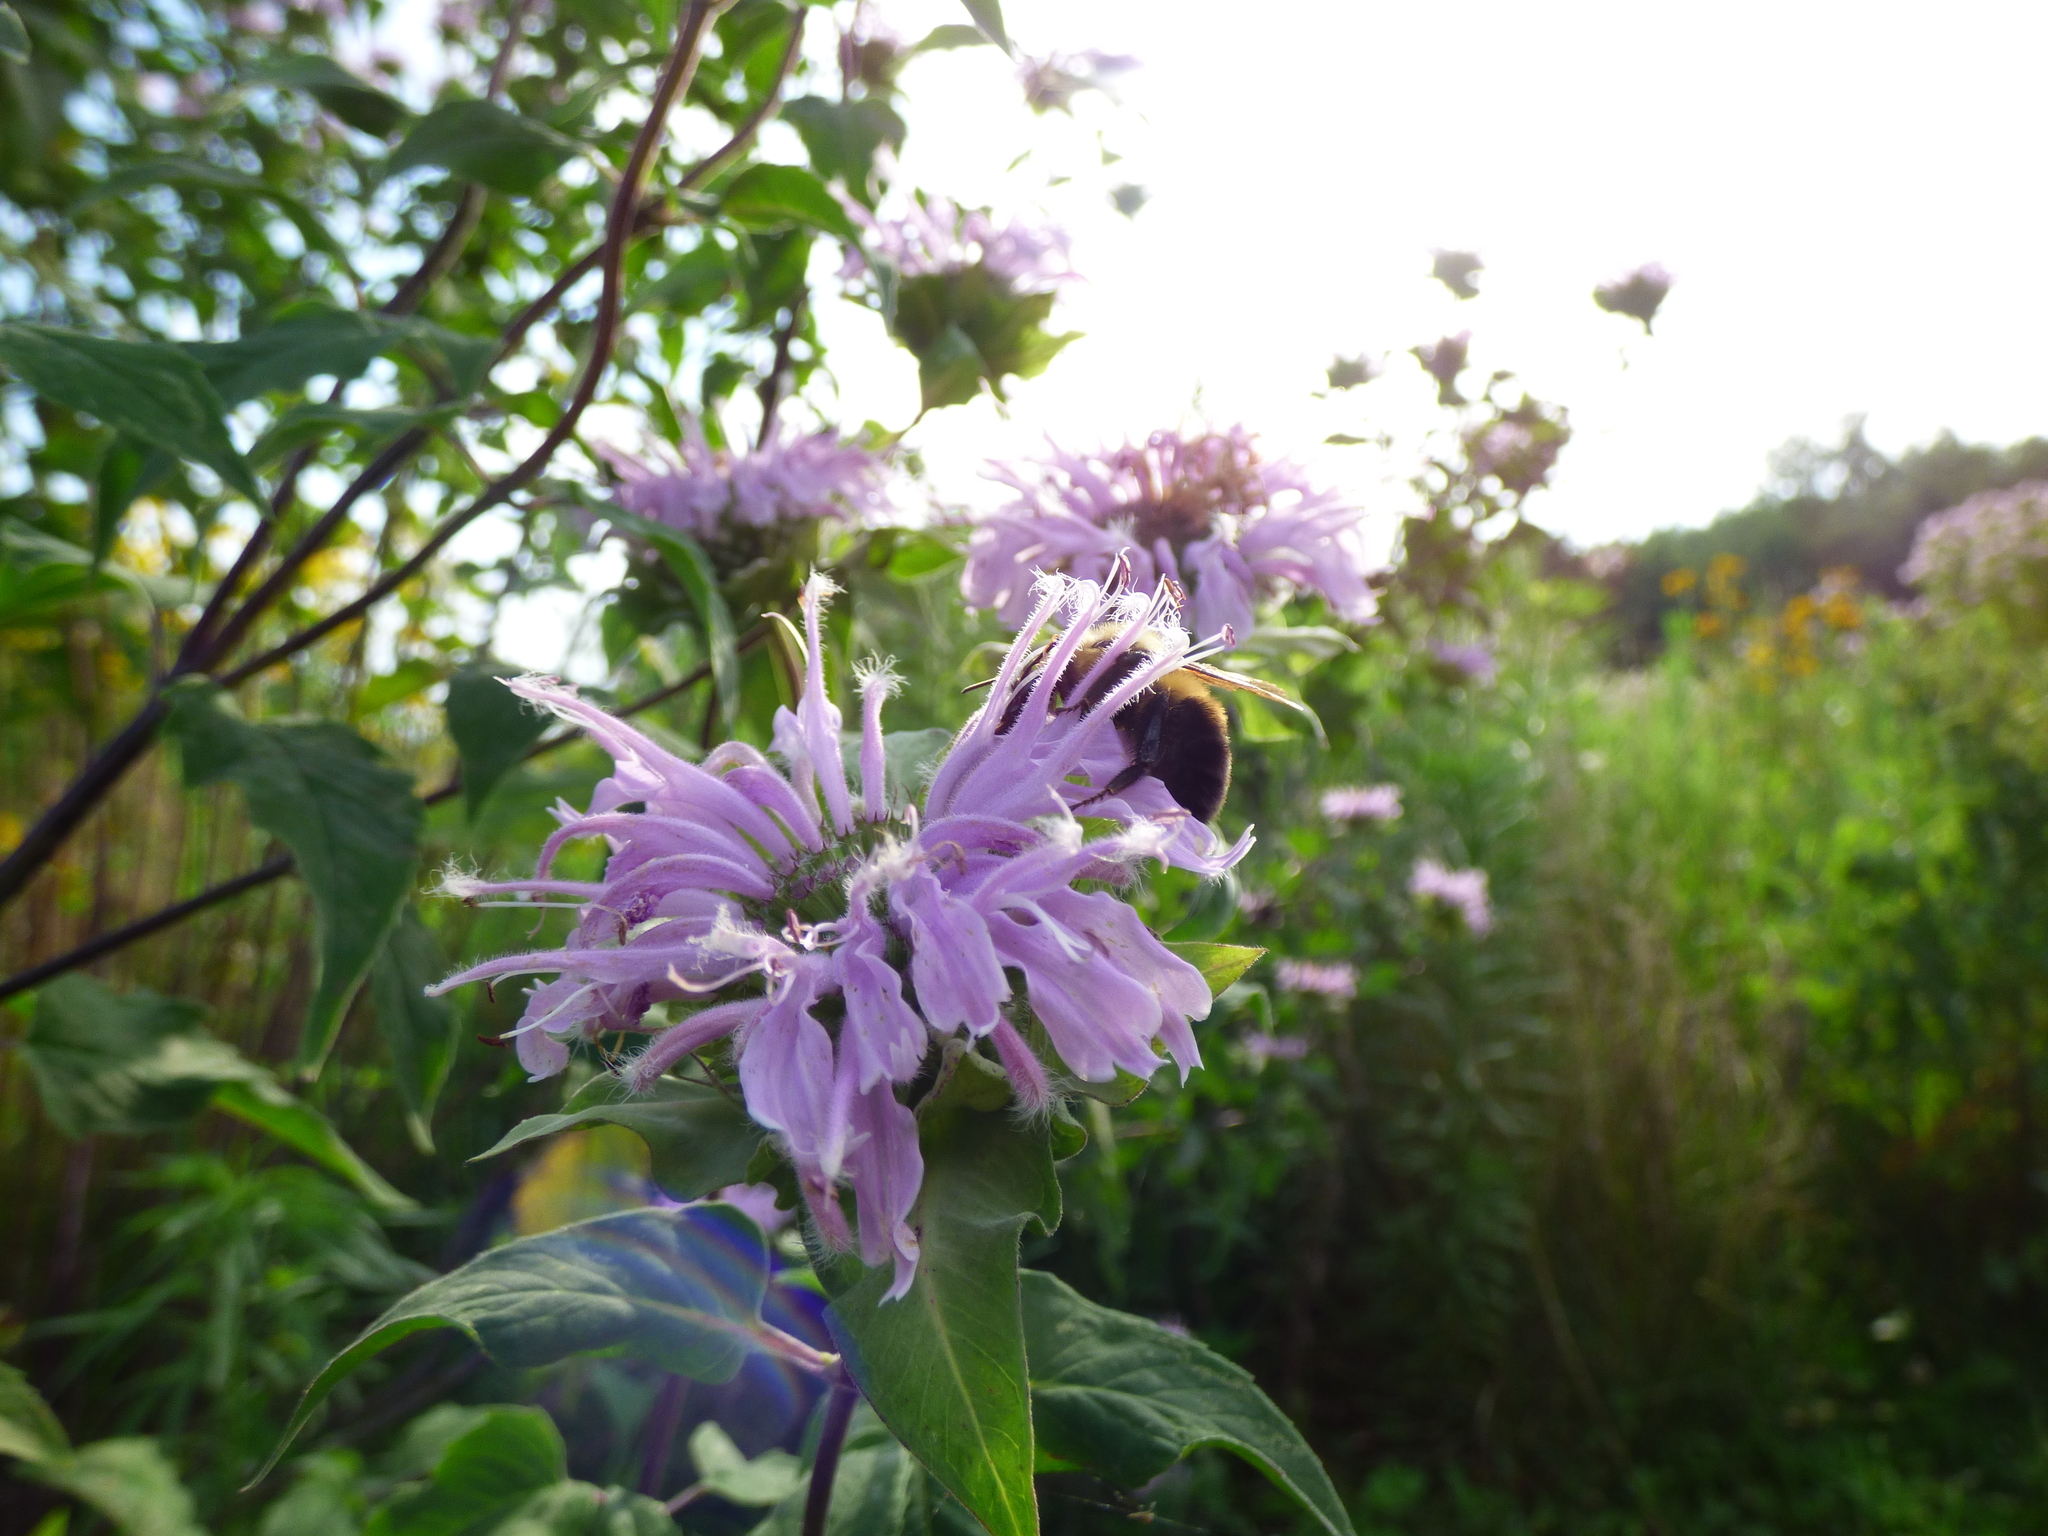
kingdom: Animalia
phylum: Arthropoda
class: Insecta
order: Hymenoptera
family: Apidae
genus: Bombus
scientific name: Bombus bimaculatus
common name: Two-spotted bumble bee
